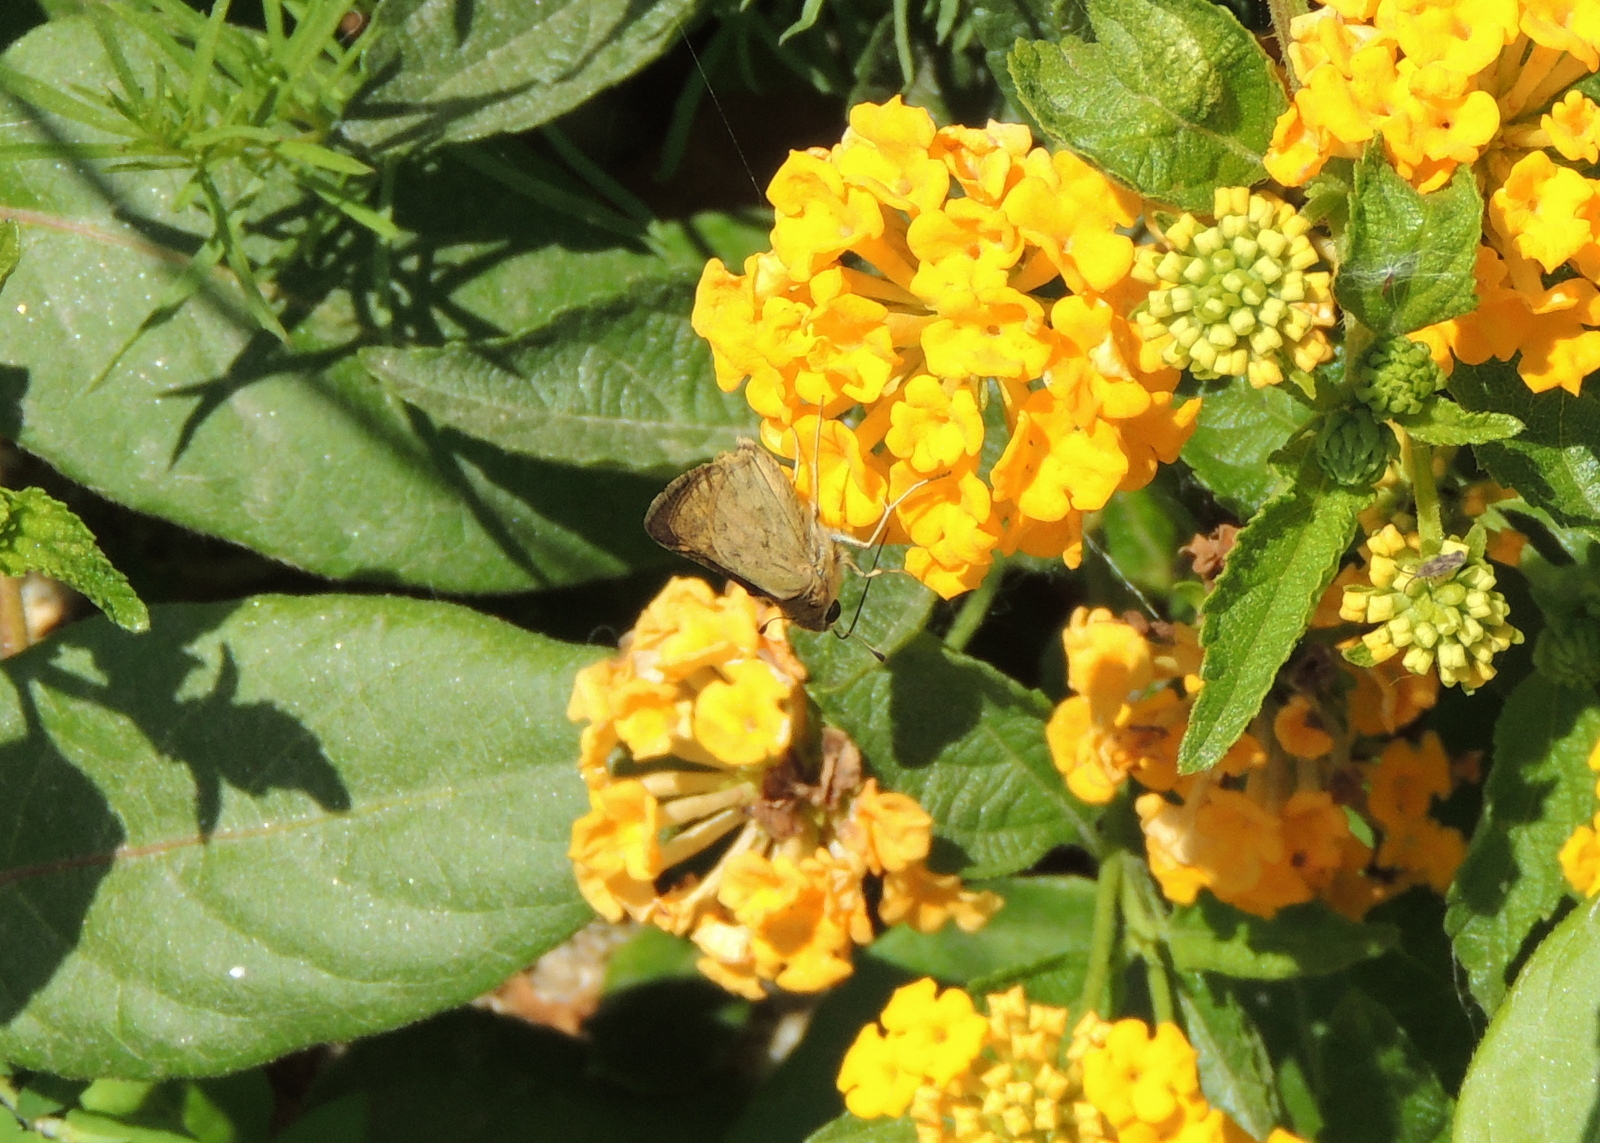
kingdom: Animalia
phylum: Arthropoda
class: Insecta
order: Lepidoptera
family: Hesperiidae
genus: Hylephila
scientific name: Hylephila phyleus
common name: Fiery skipper
